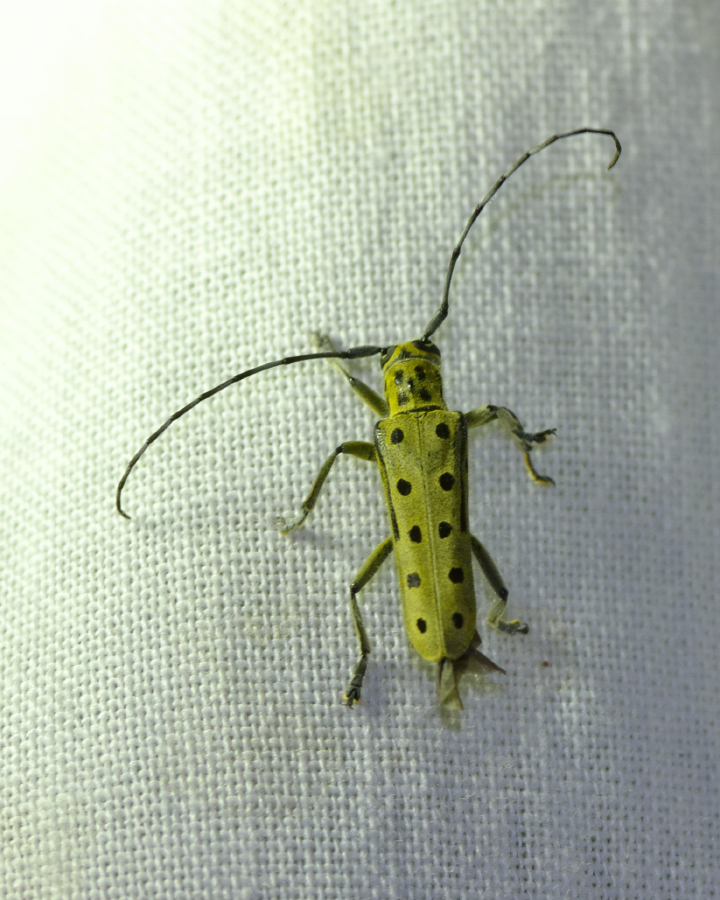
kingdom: Animalia
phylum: Arthropoda
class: Insecta
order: Coleoptera
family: Cerambycidae
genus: Saperda
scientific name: Saperda perforata
